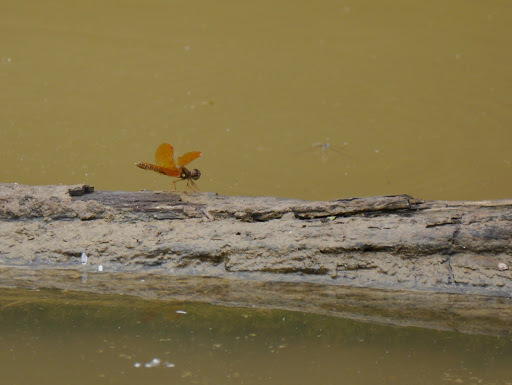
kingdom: Animalia
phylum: Arthropoda
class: Insecta
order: Odonata
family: Libellulidae
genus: Perithemis
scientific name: Perithemis tenera
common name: Eastern amberwing
